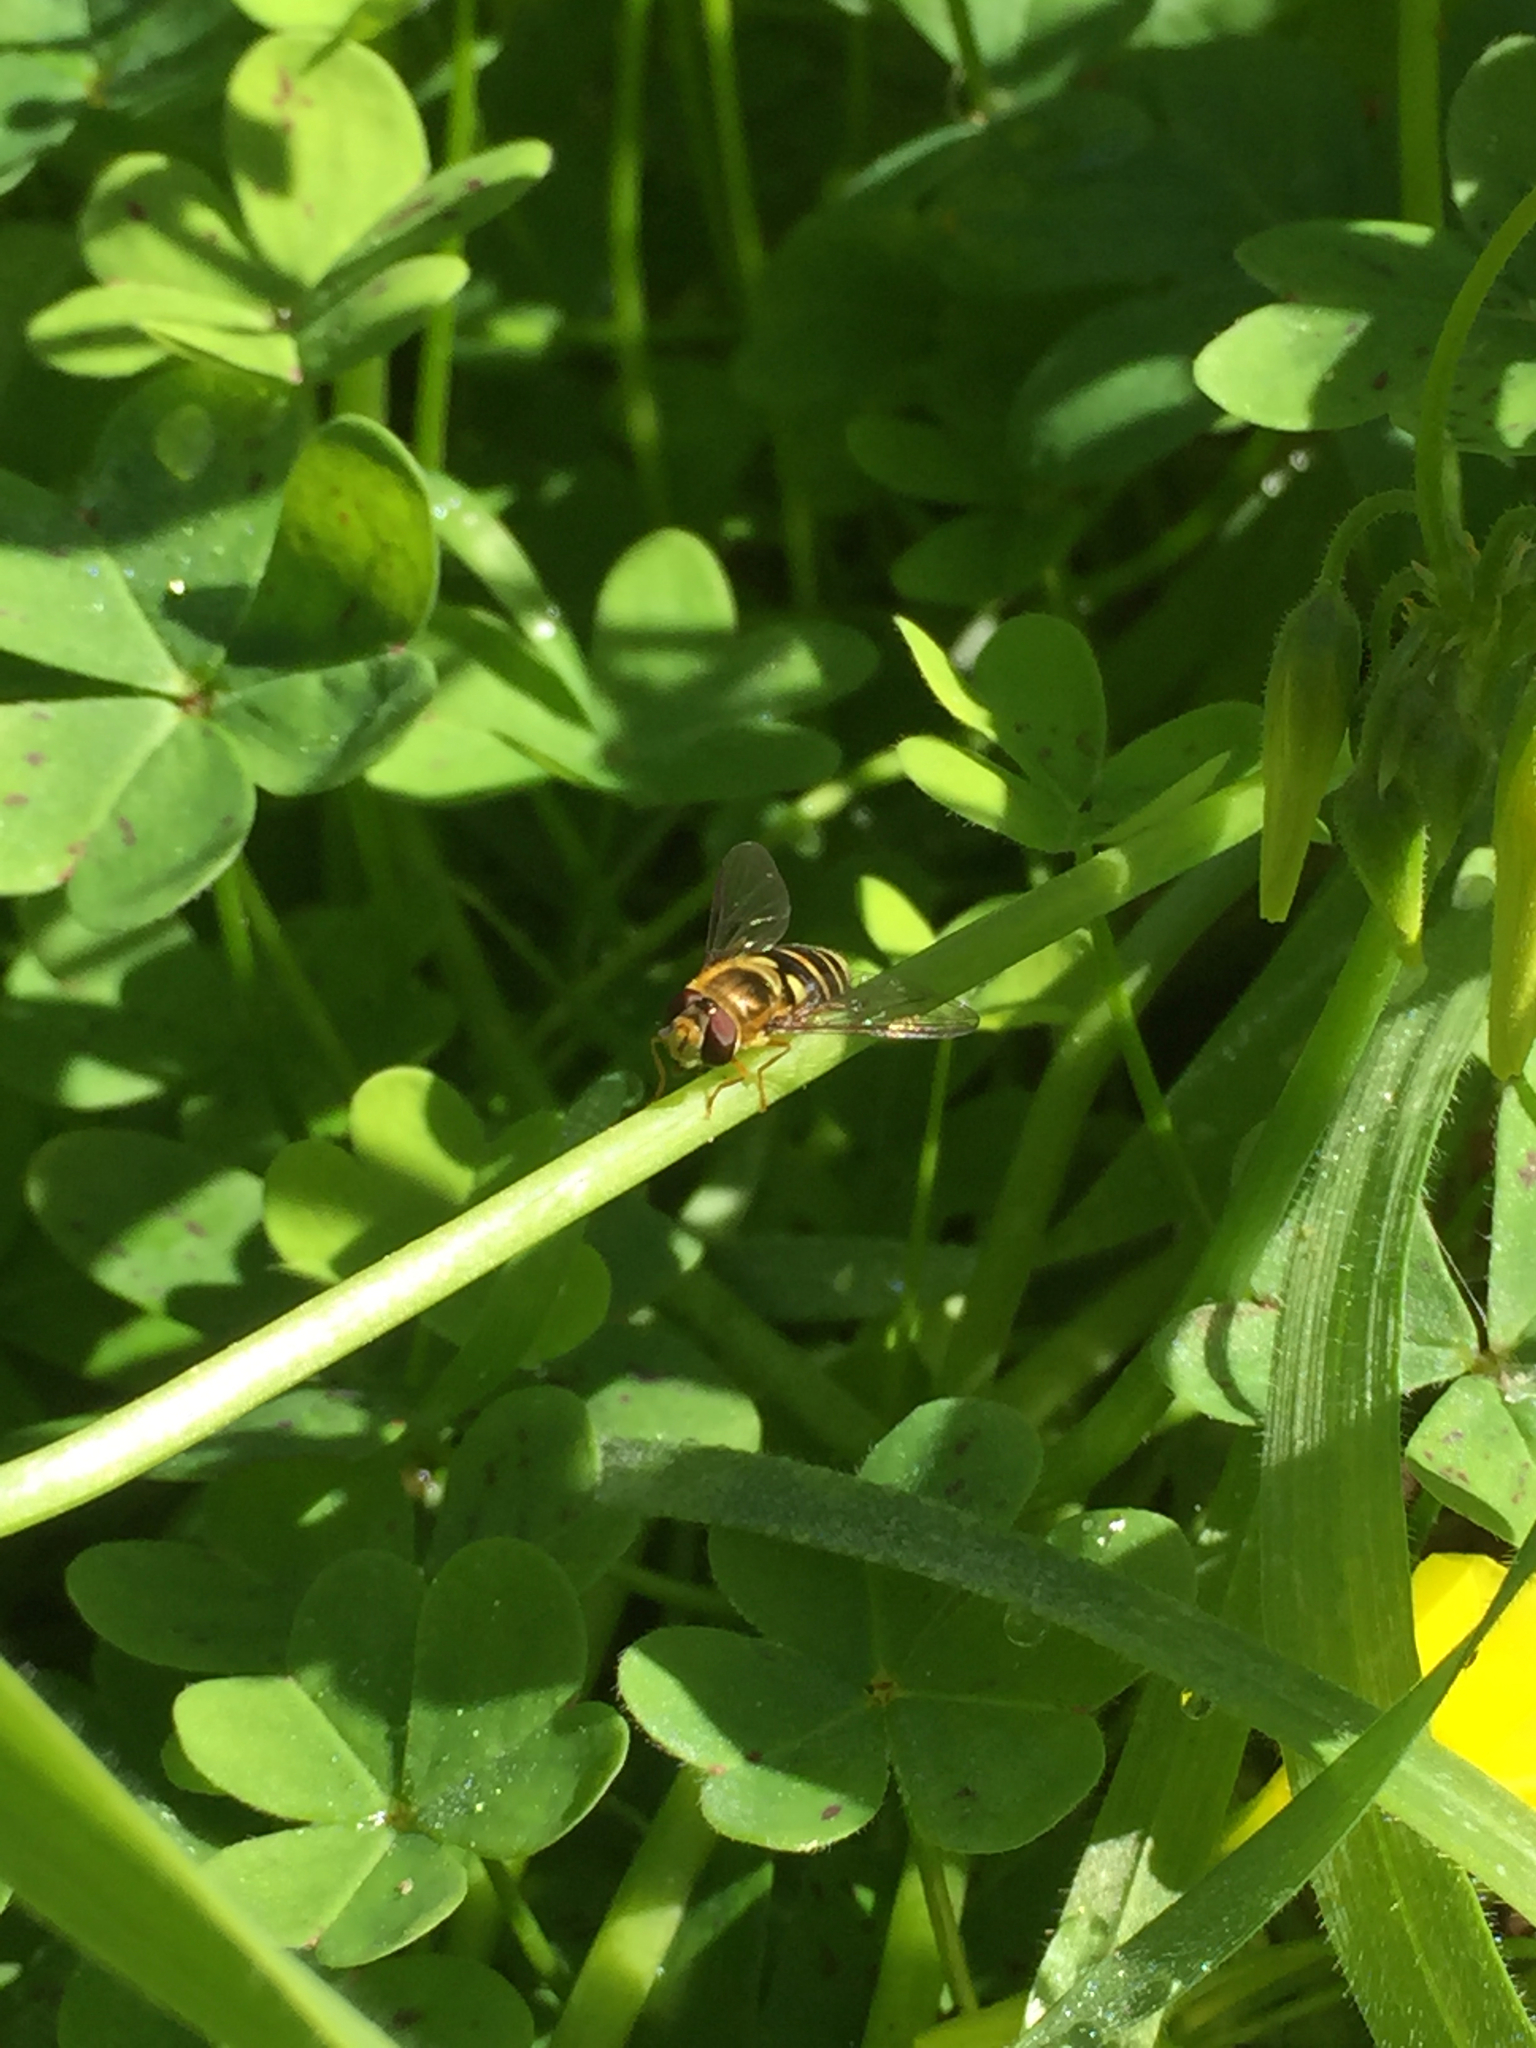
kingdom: Animalia
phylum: Arthropoda
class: Insecta
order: Diptera
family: Syrphidae
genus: Syrphus
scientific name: Syrphus opinator
